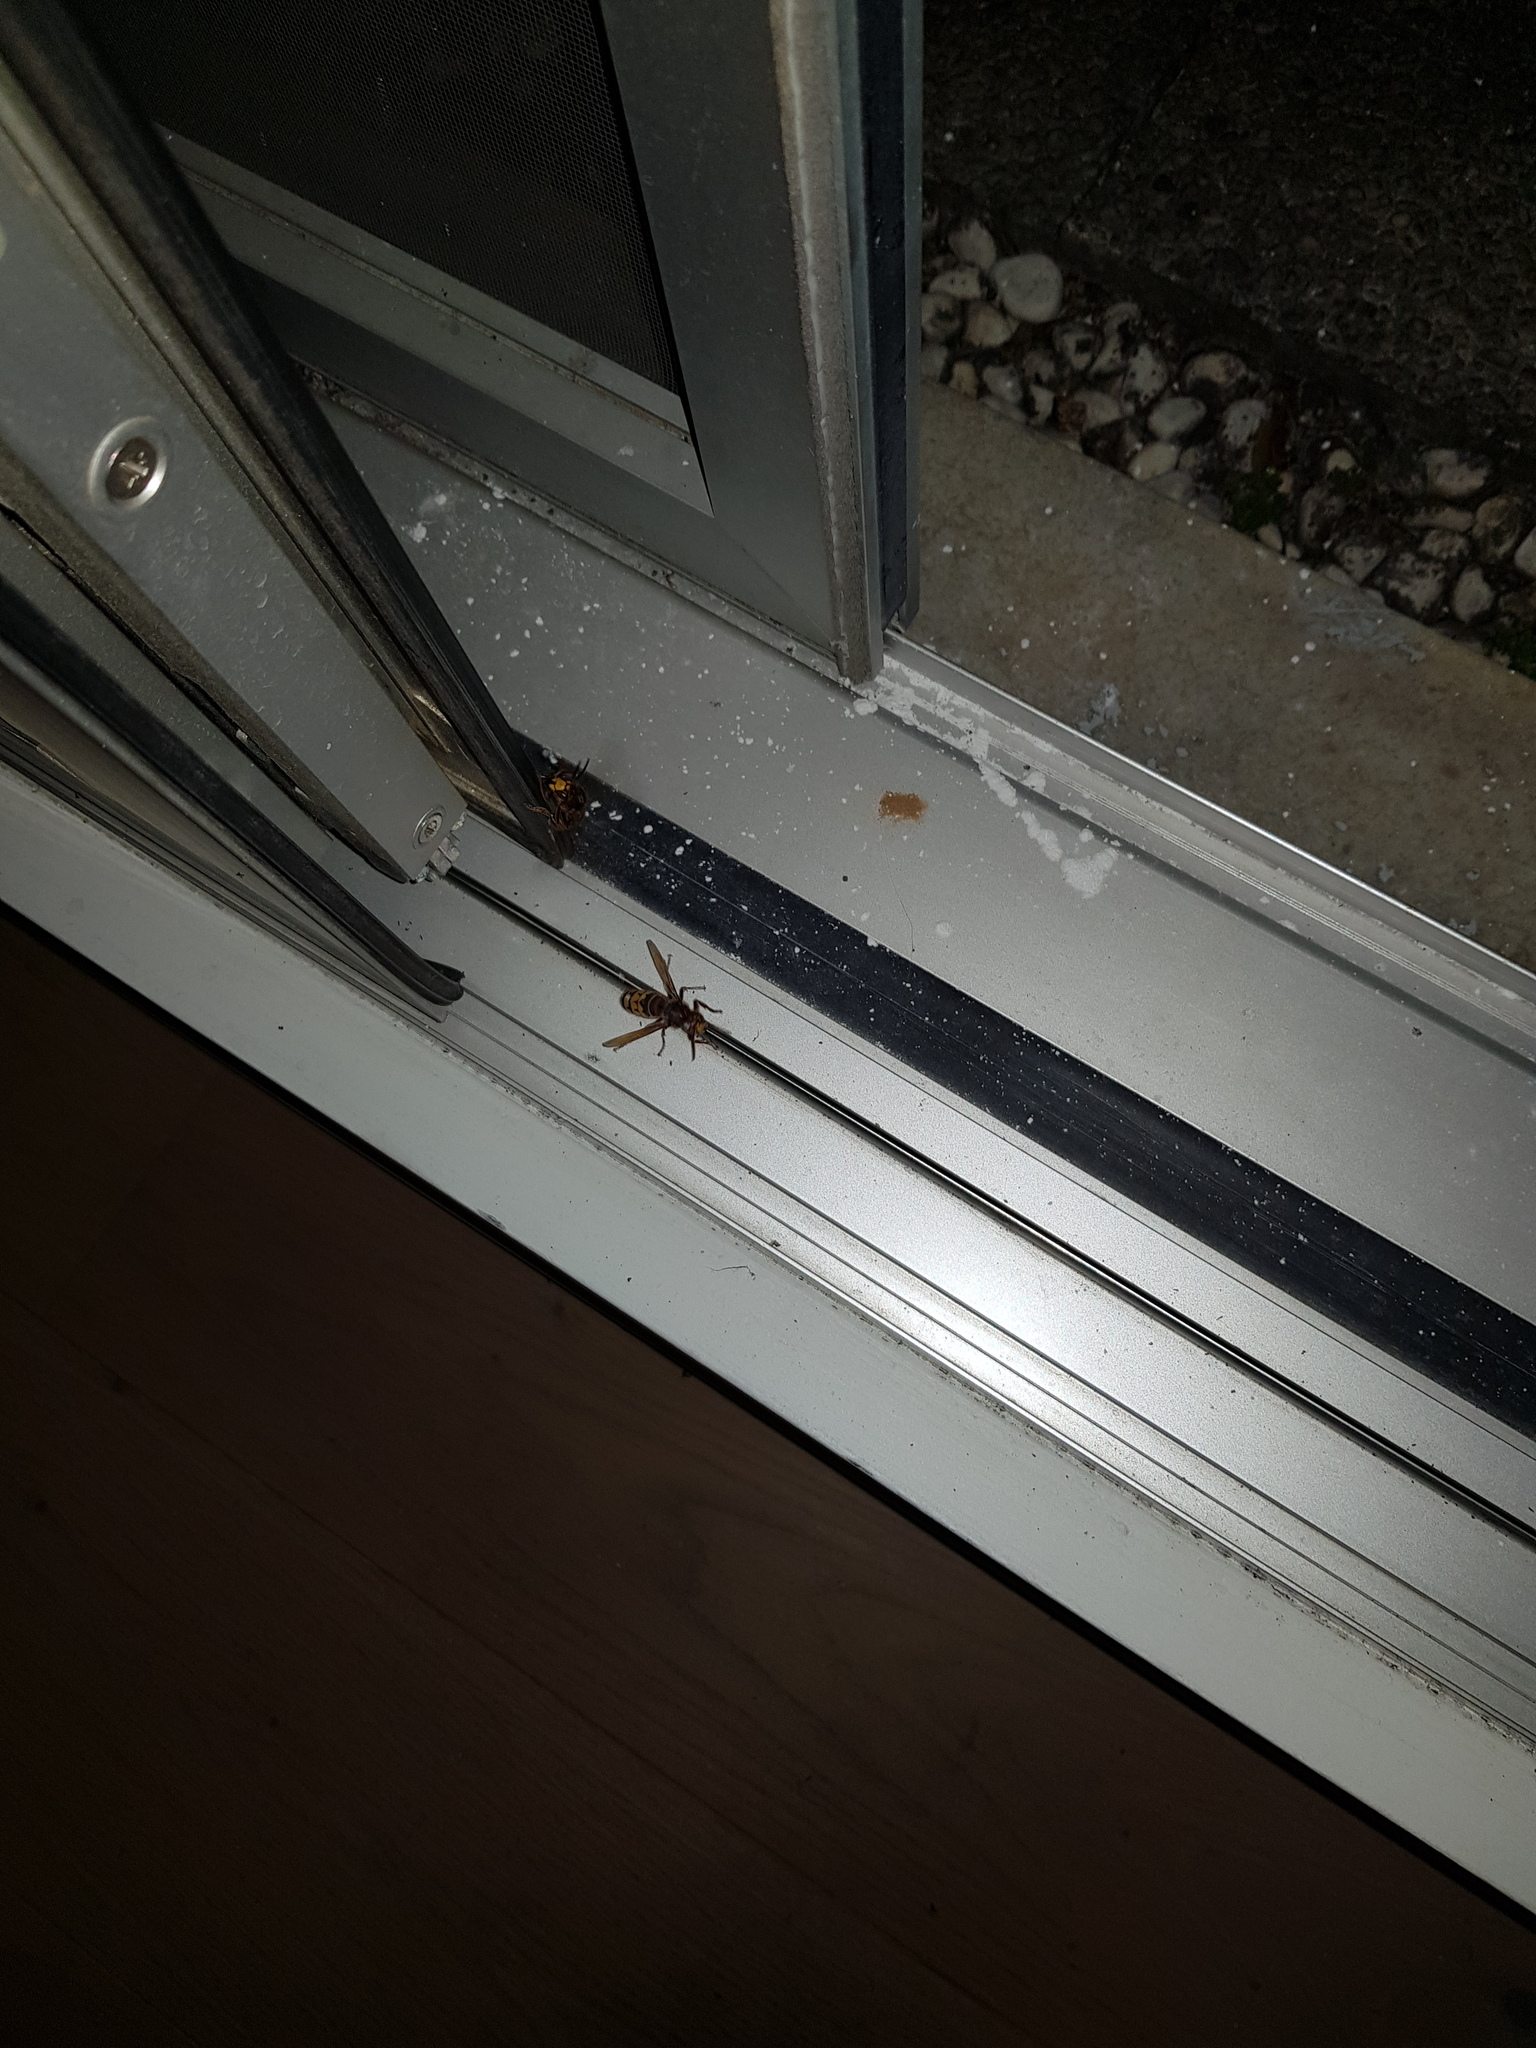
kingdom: Animalia
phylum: Arthropoda
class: Insecta
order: Hymenoptera
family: Vespidae
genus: Vespa
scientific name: Vespa crabro
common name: Hornet
